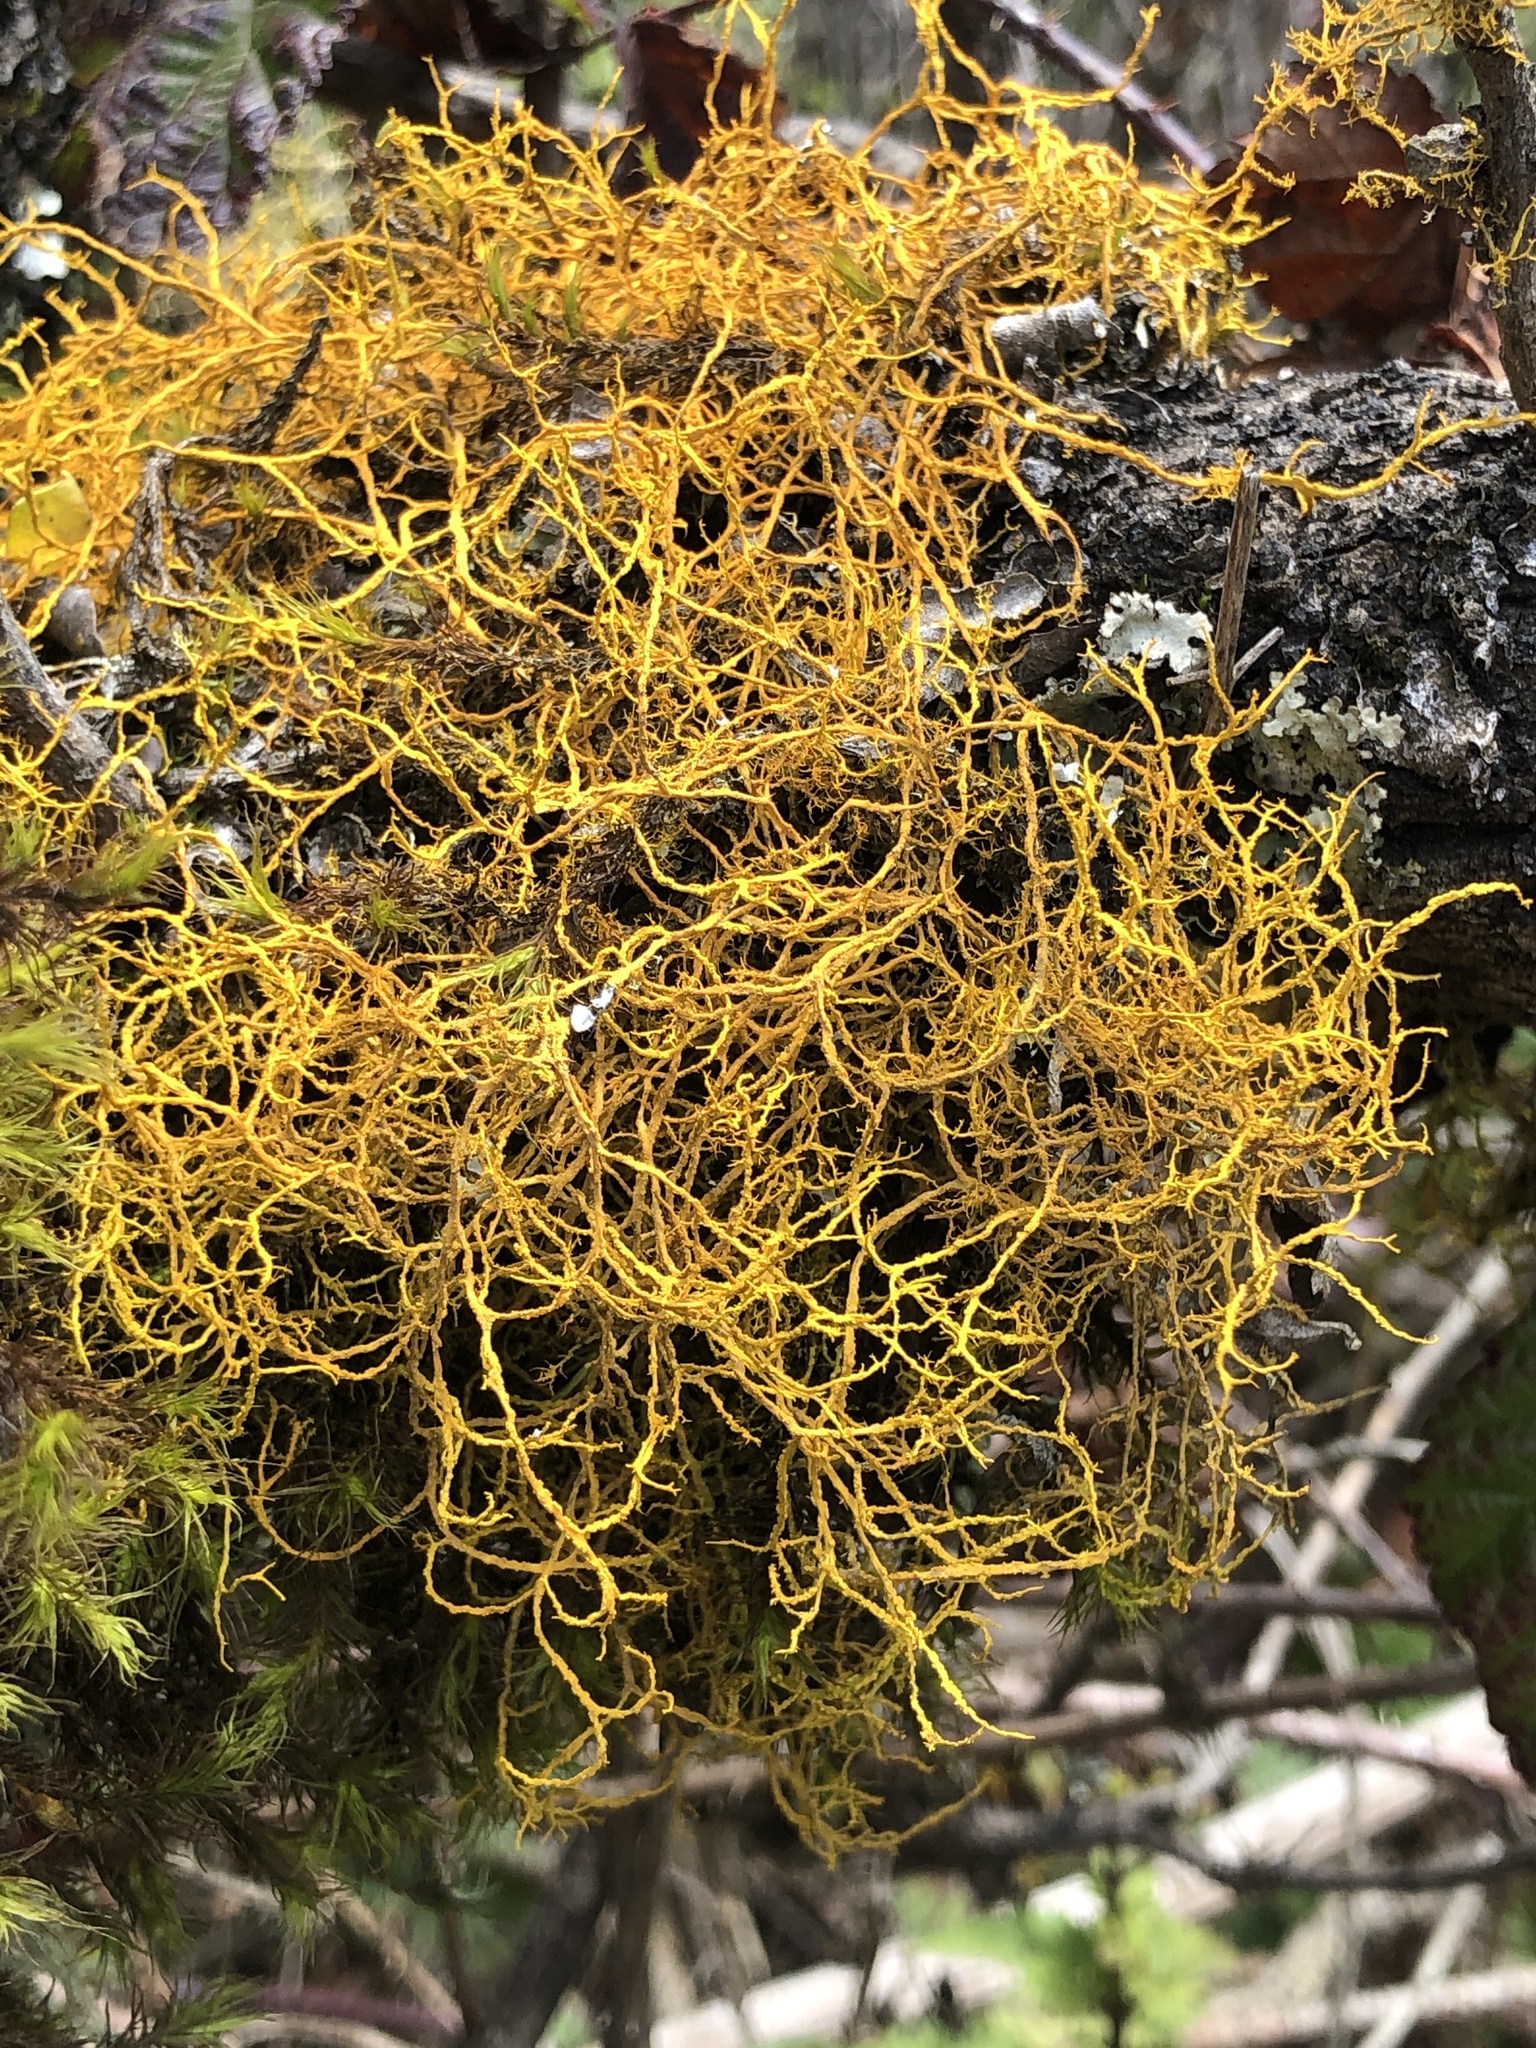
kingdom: Fungi
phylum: Ascomycota
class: Lecanoromycetes
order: Teloschistales
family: Teloschistaceae
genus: Teloschistes
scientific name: Teloschistes flavicans
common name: Golden hair-lichen
